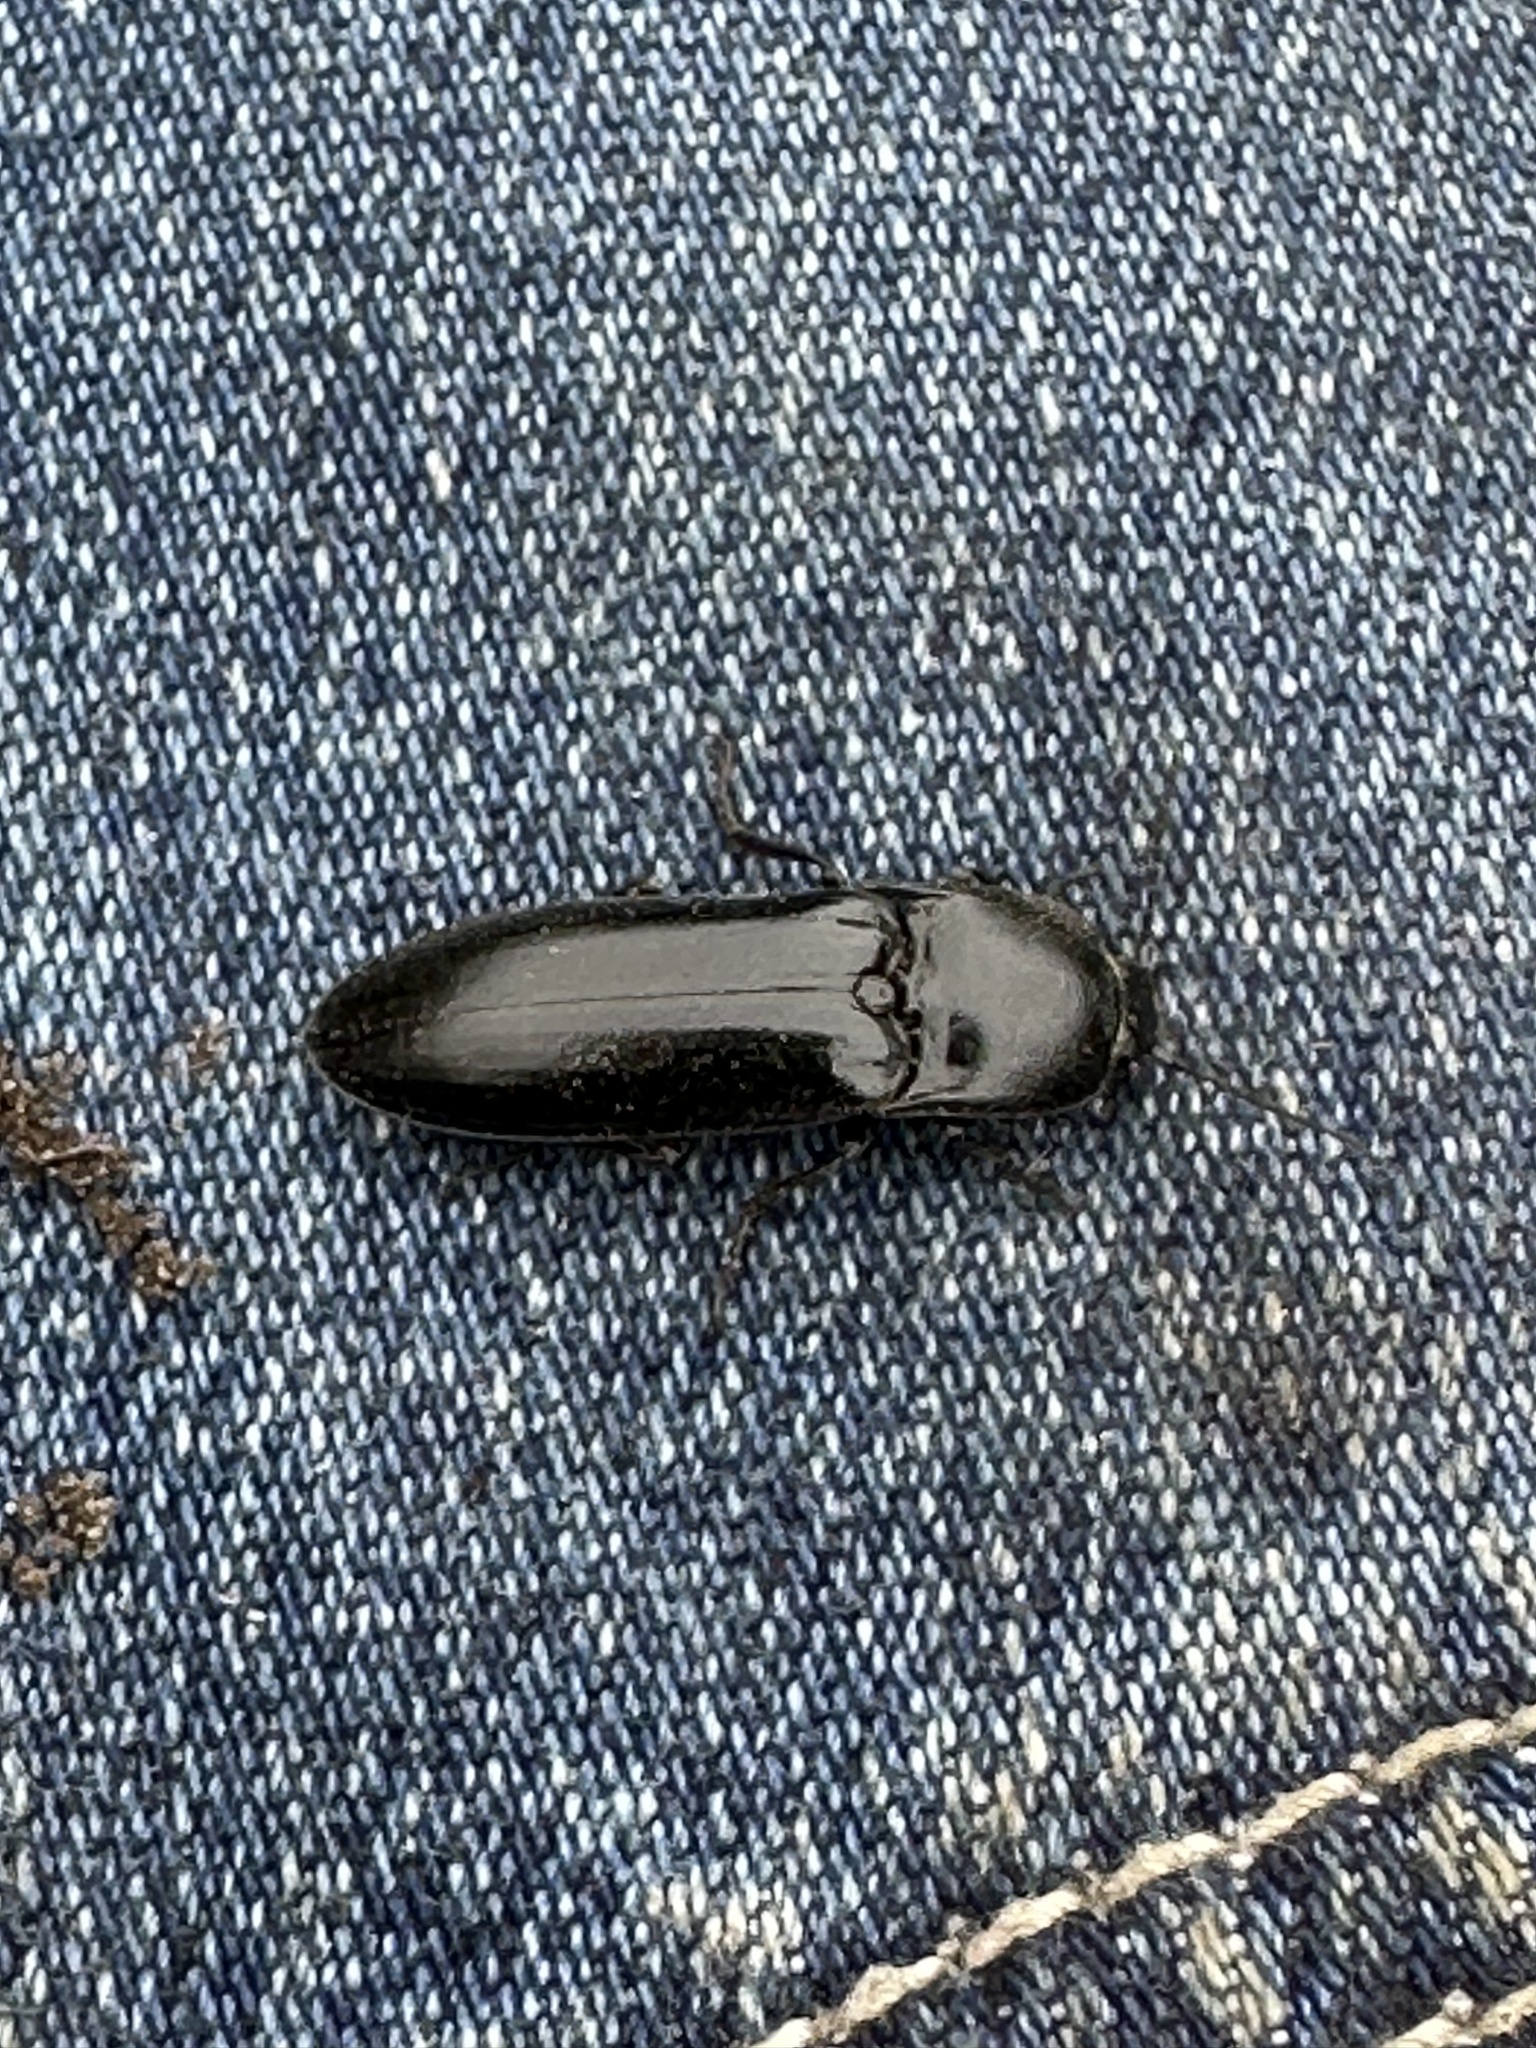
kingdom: Animalia
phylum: Arthropoda
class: Insecta
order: Coleoptera
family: Elateridae
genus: Melanactes
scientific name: Melanactes
